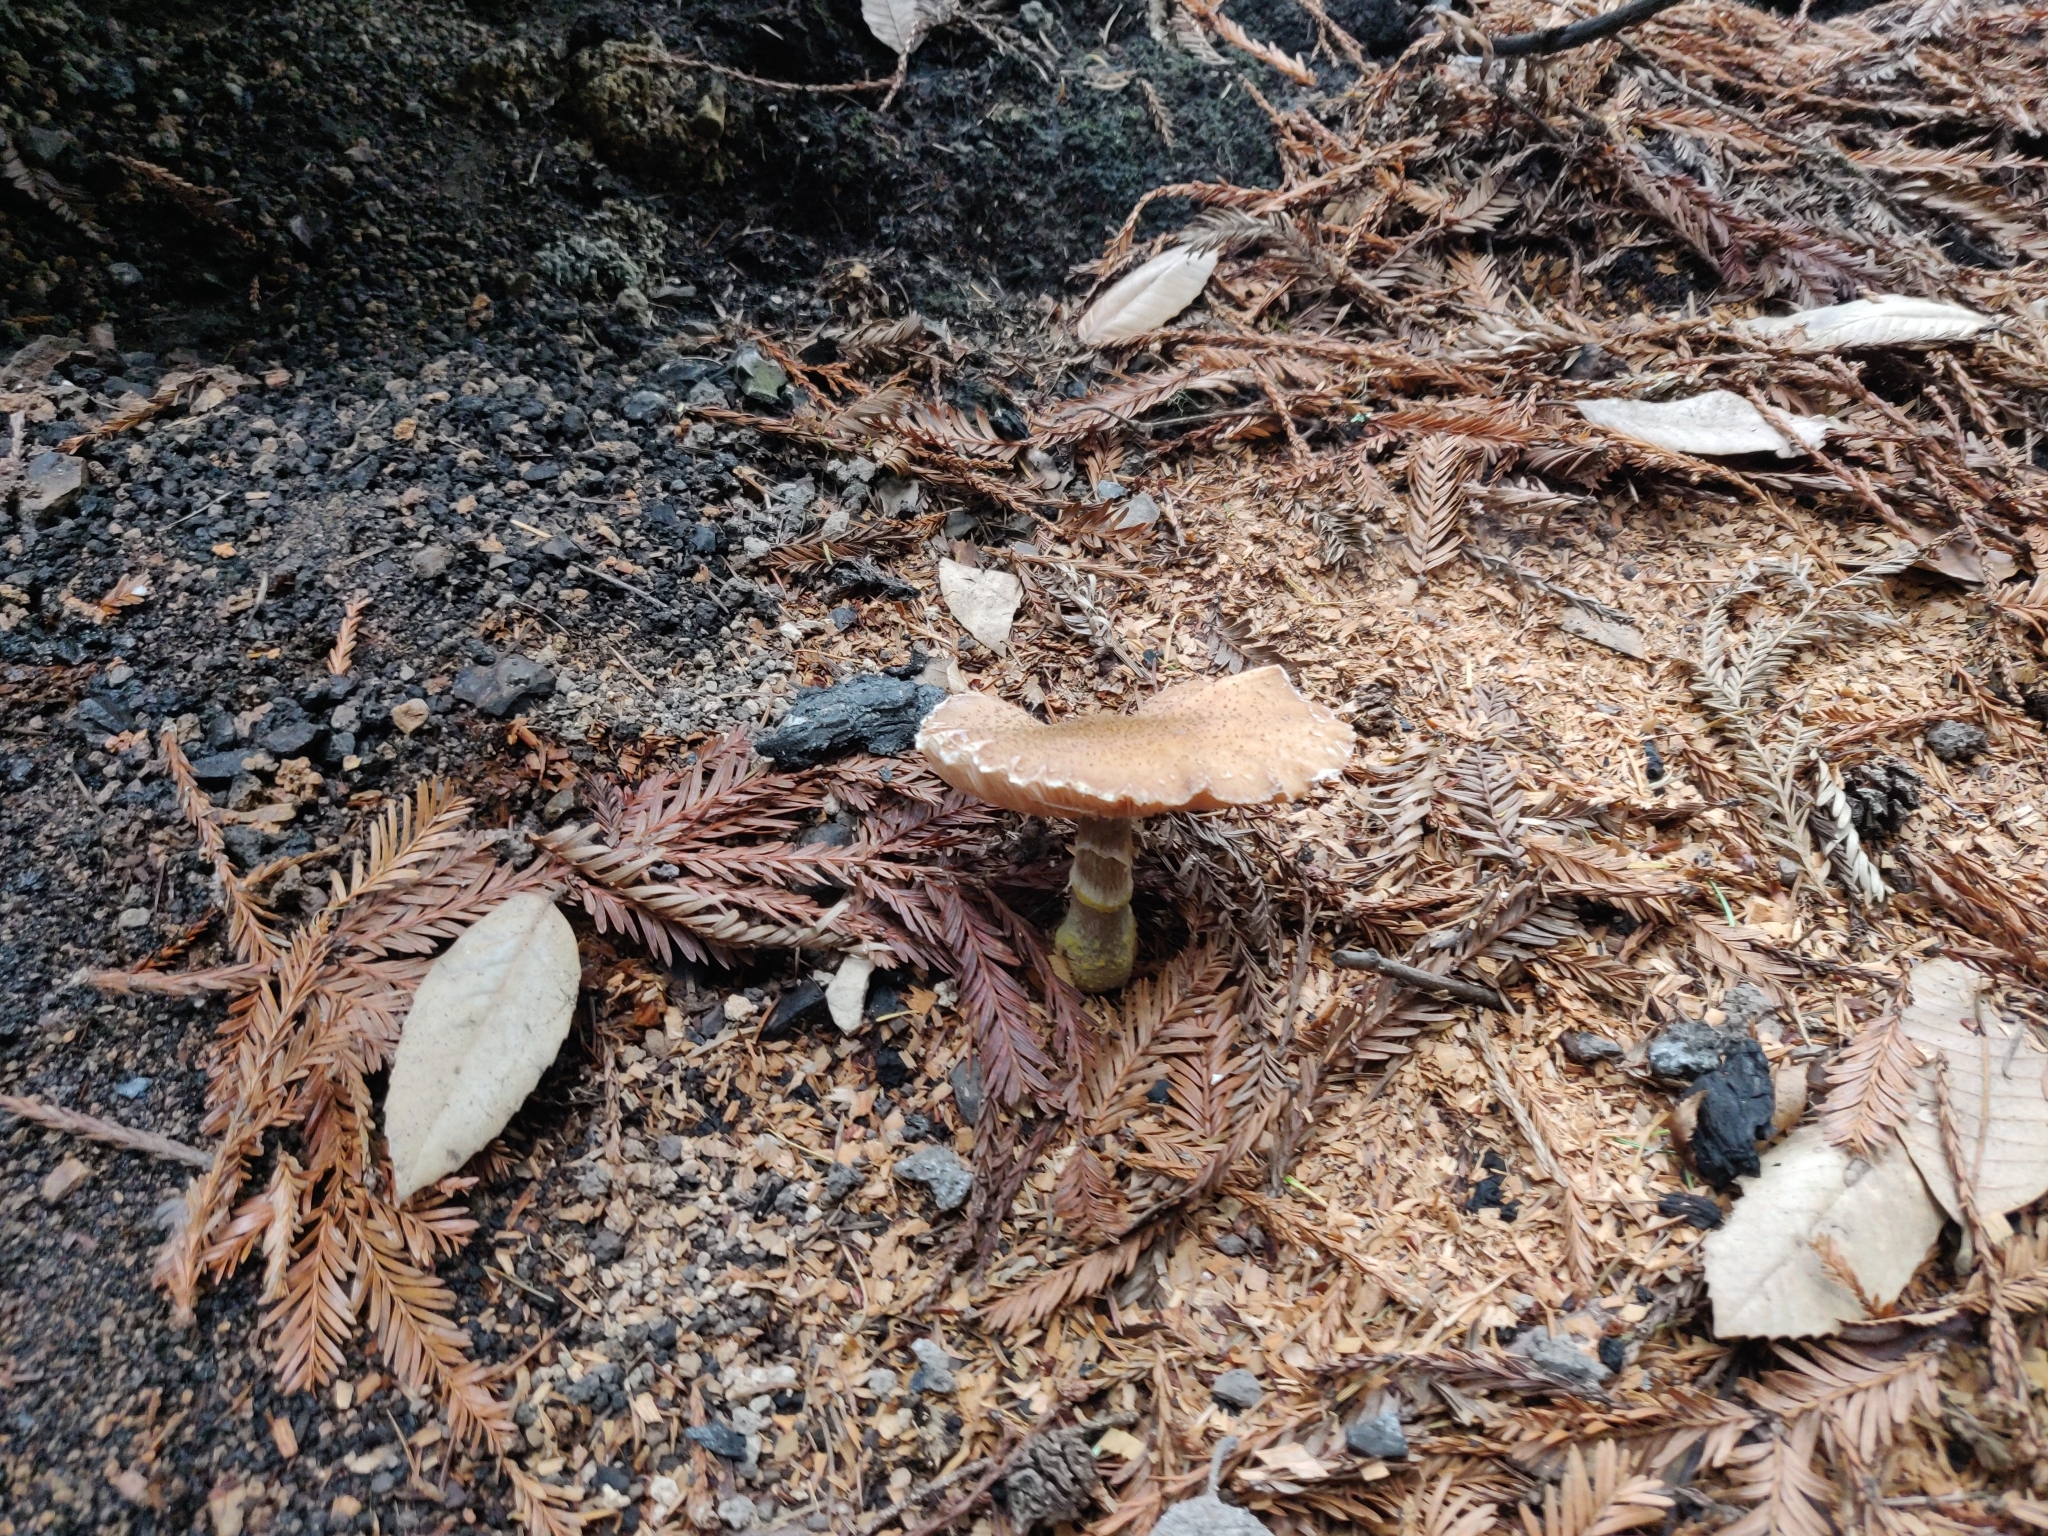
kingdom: Fungi
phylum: Basidiomycota
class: Agaricomycetes
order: Agaricales
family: Physalacriaceae
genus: Armillaria
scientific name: Armillaria sinapina
